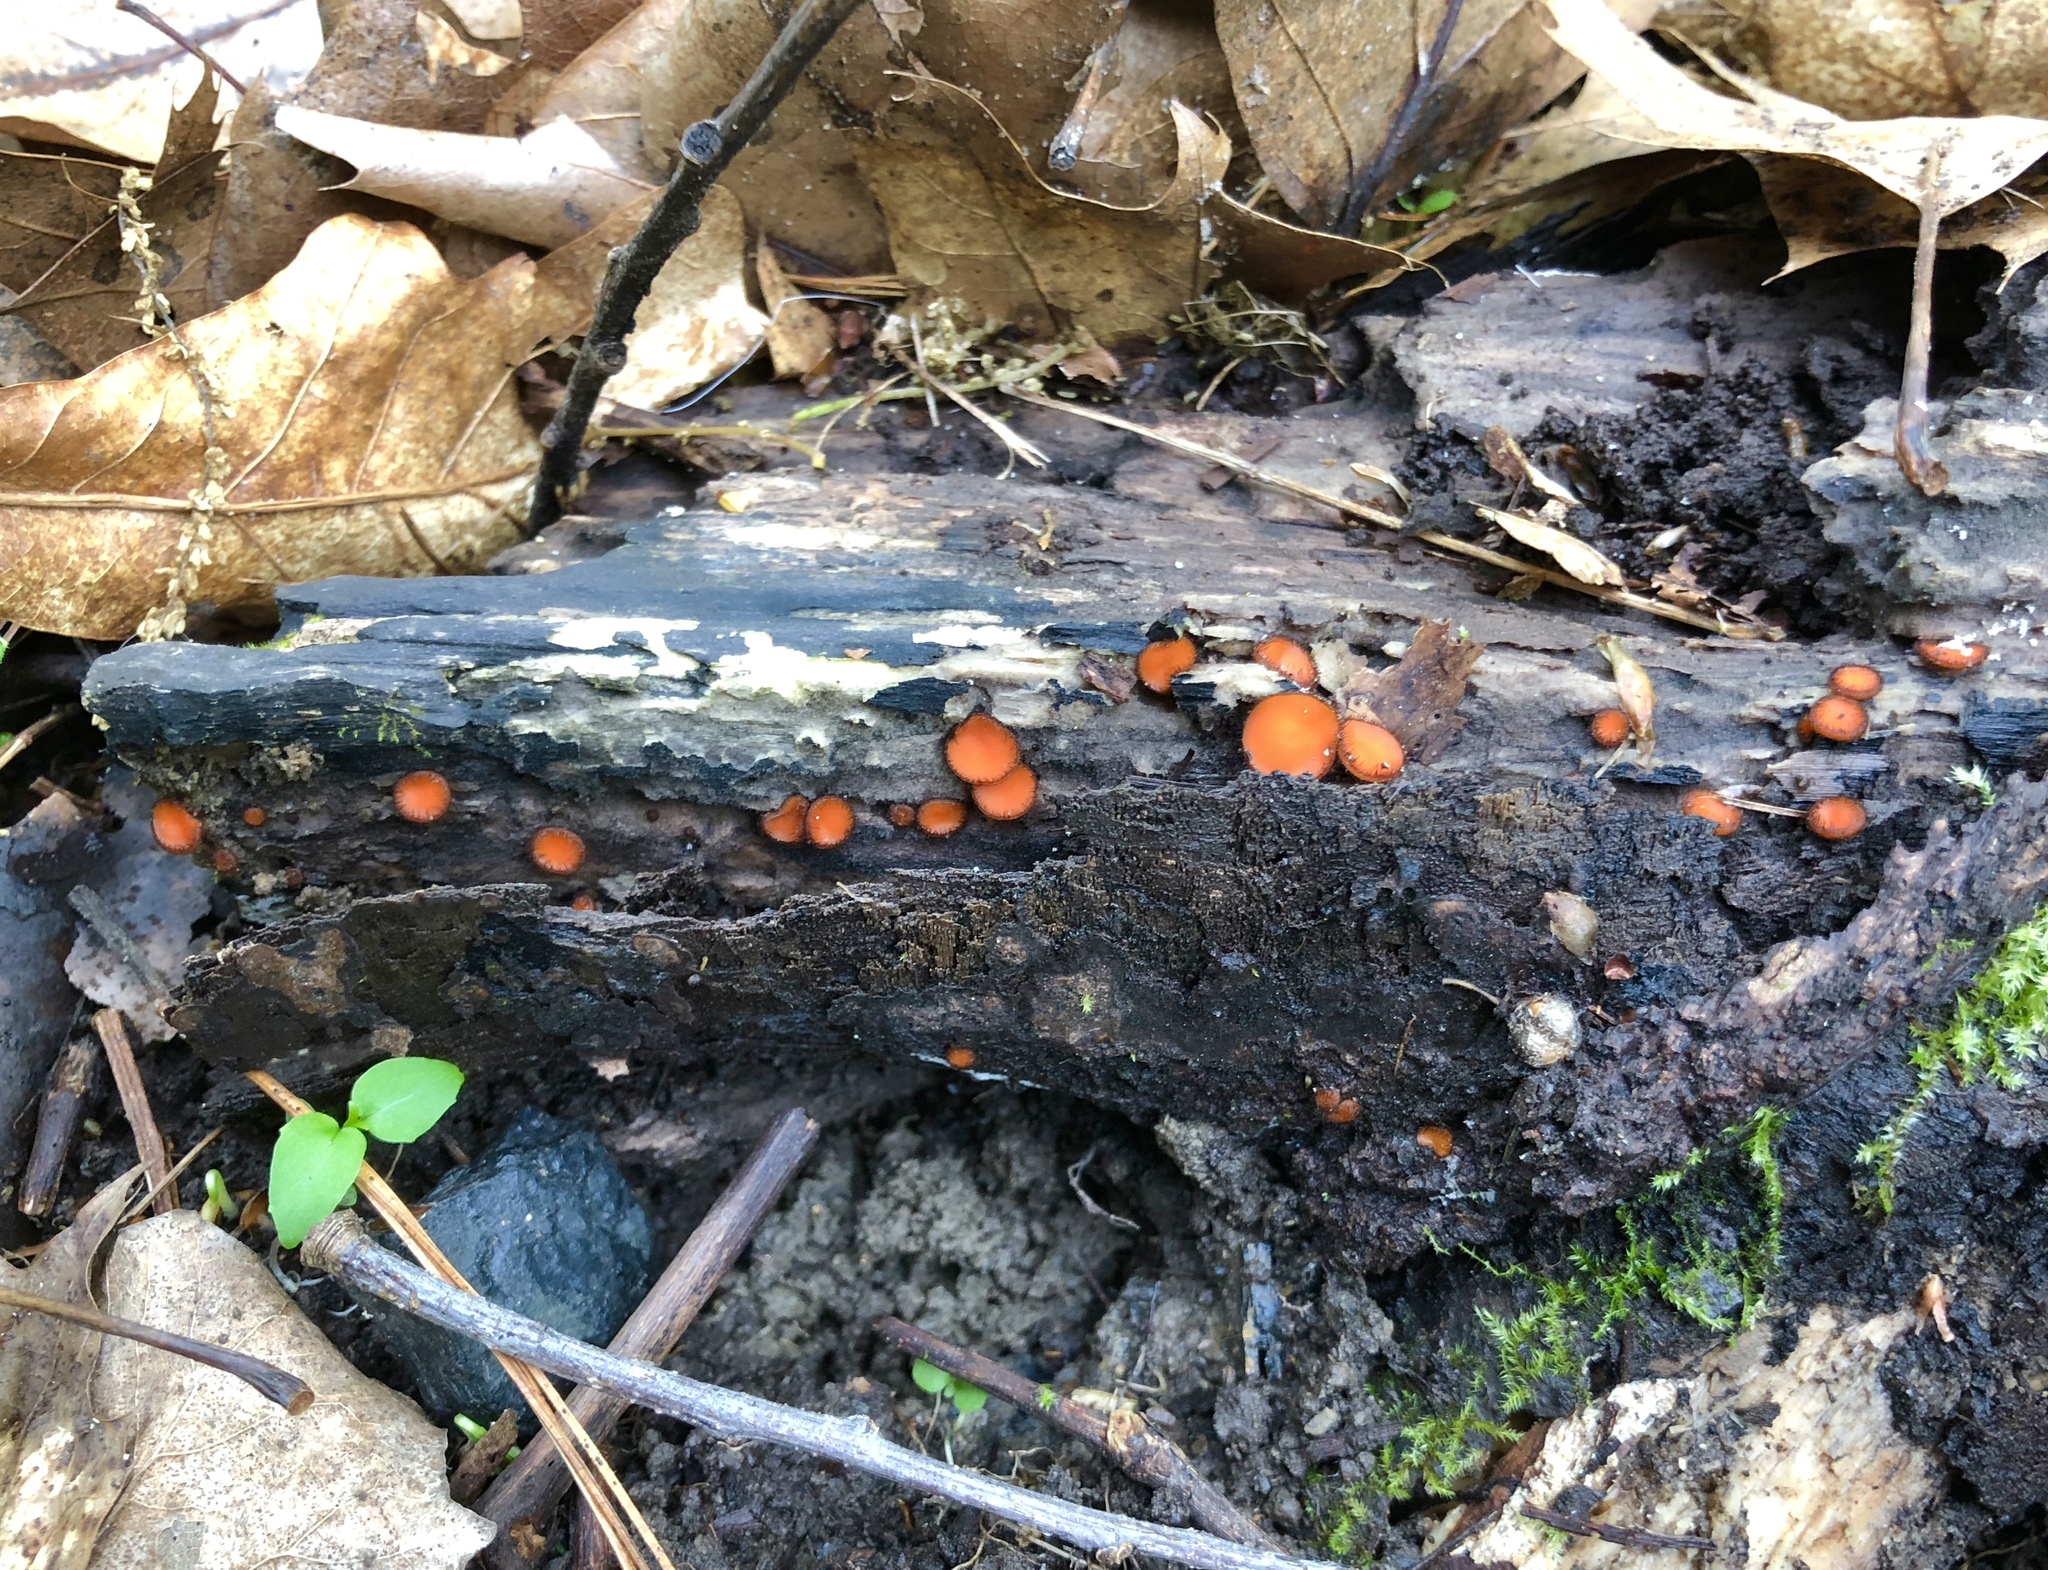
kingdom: Fungi
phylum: Ascomycota
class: Pezizomycetes
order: Pezizales
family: Pyronemataceae
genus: Scutellinia
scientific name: Scutellinia
